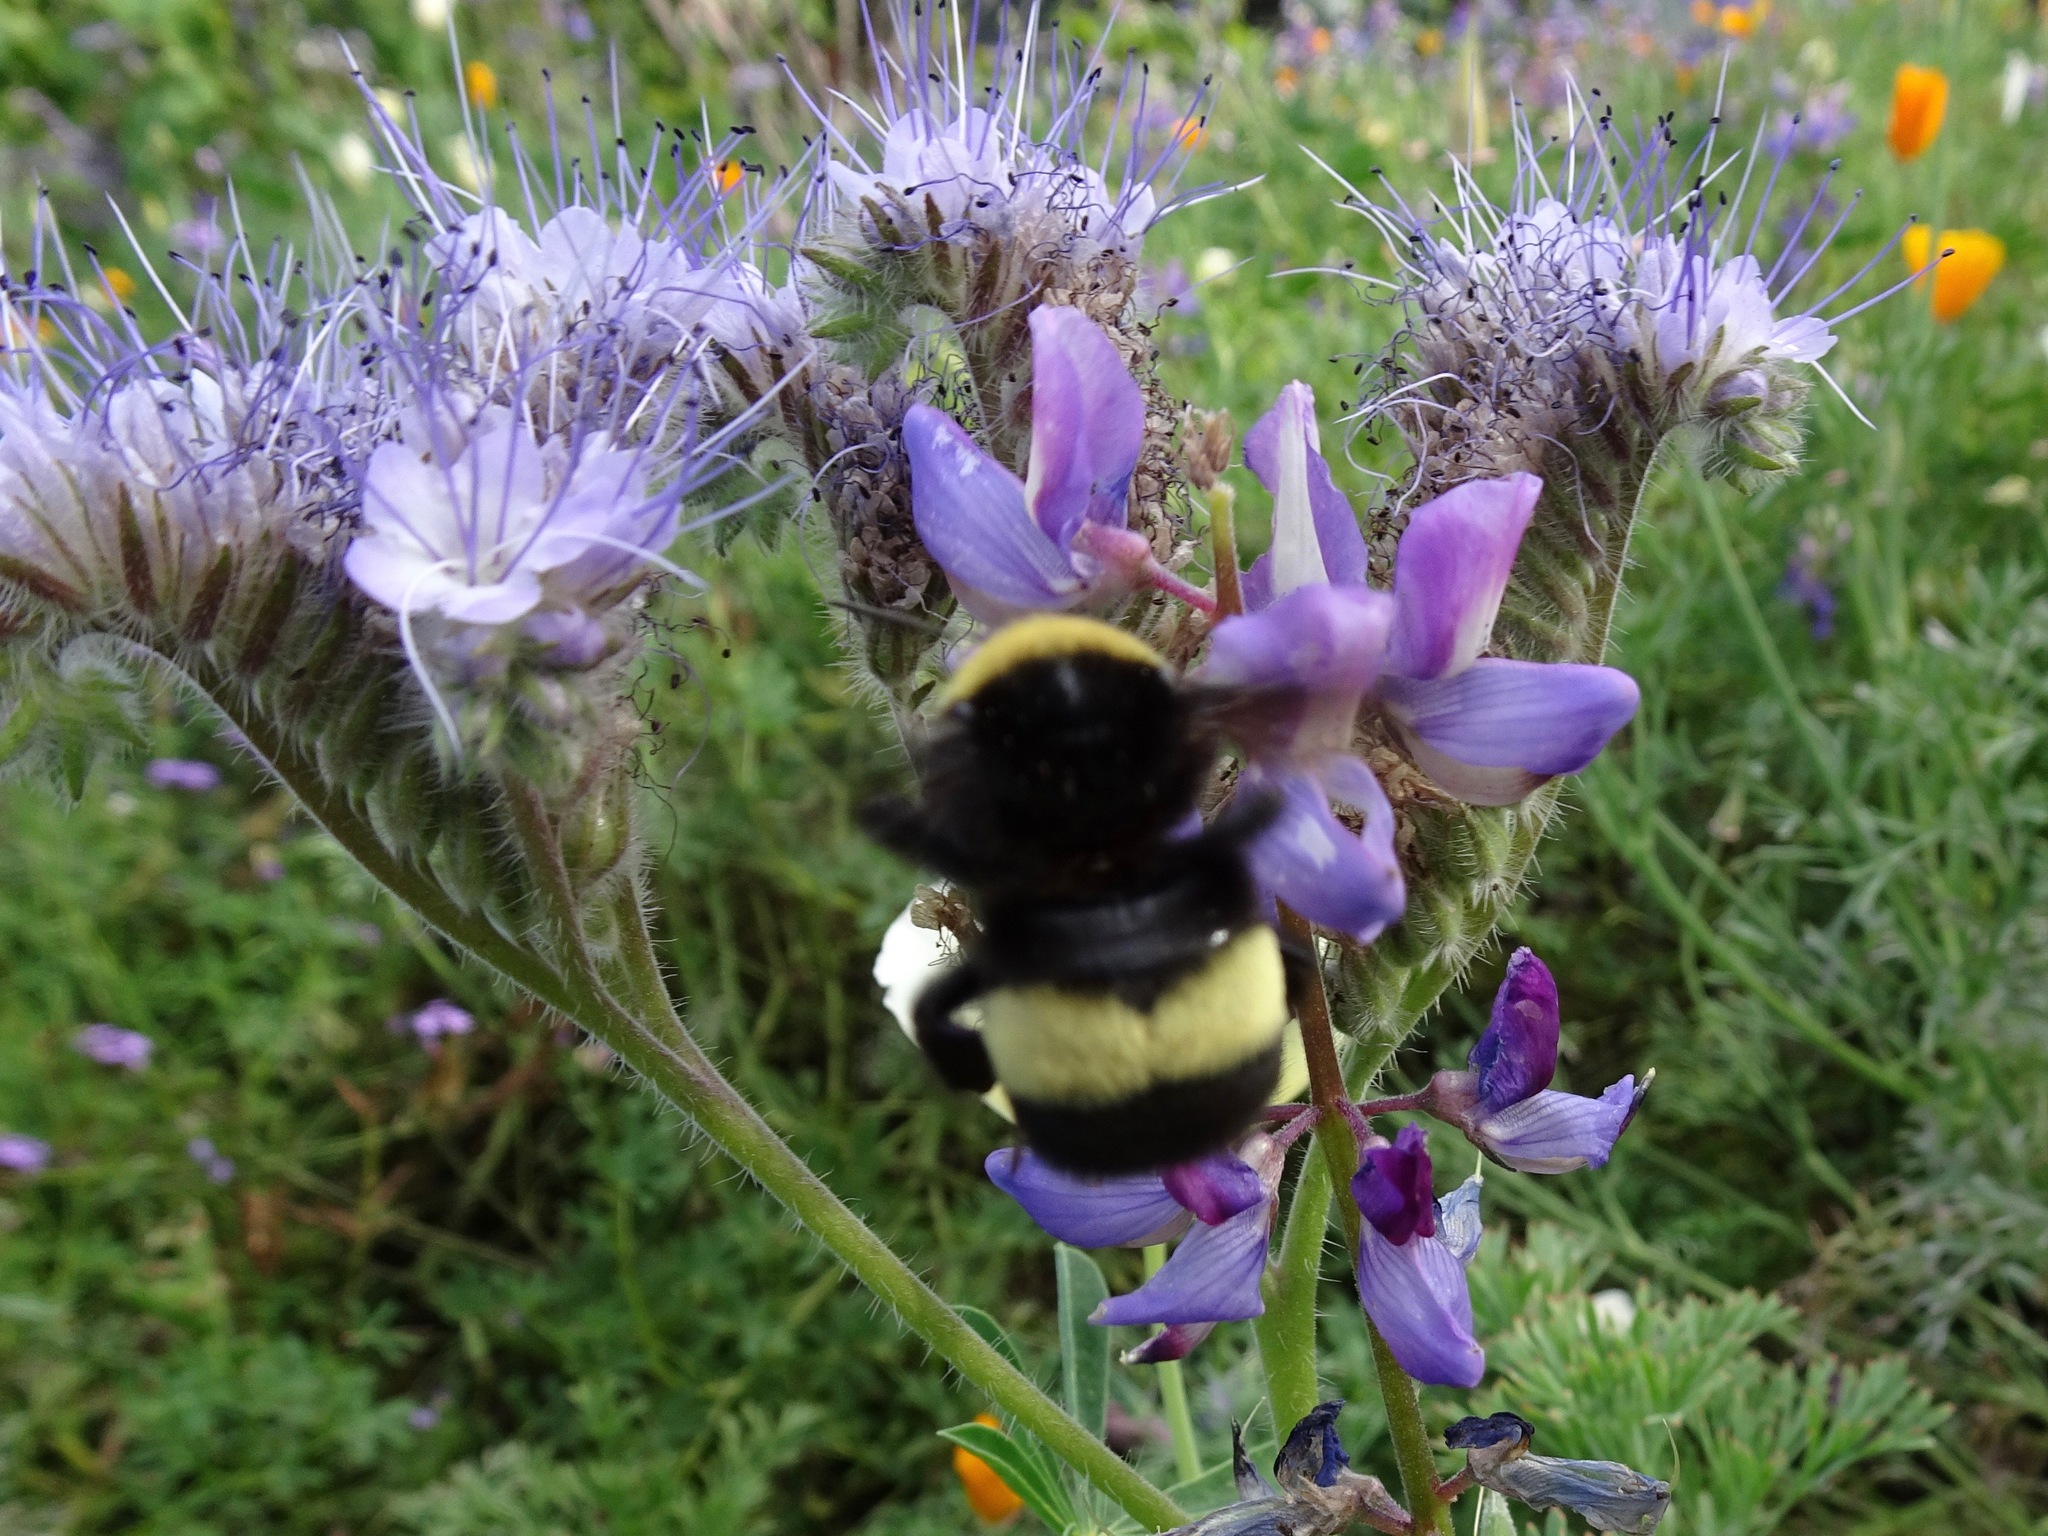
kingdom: Animalia
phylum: Arthropoda
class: Insecta
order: Hymenoptera
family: Apidae
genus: Bombus
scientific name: Bombus crotchii
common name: Crotch bumble bee
